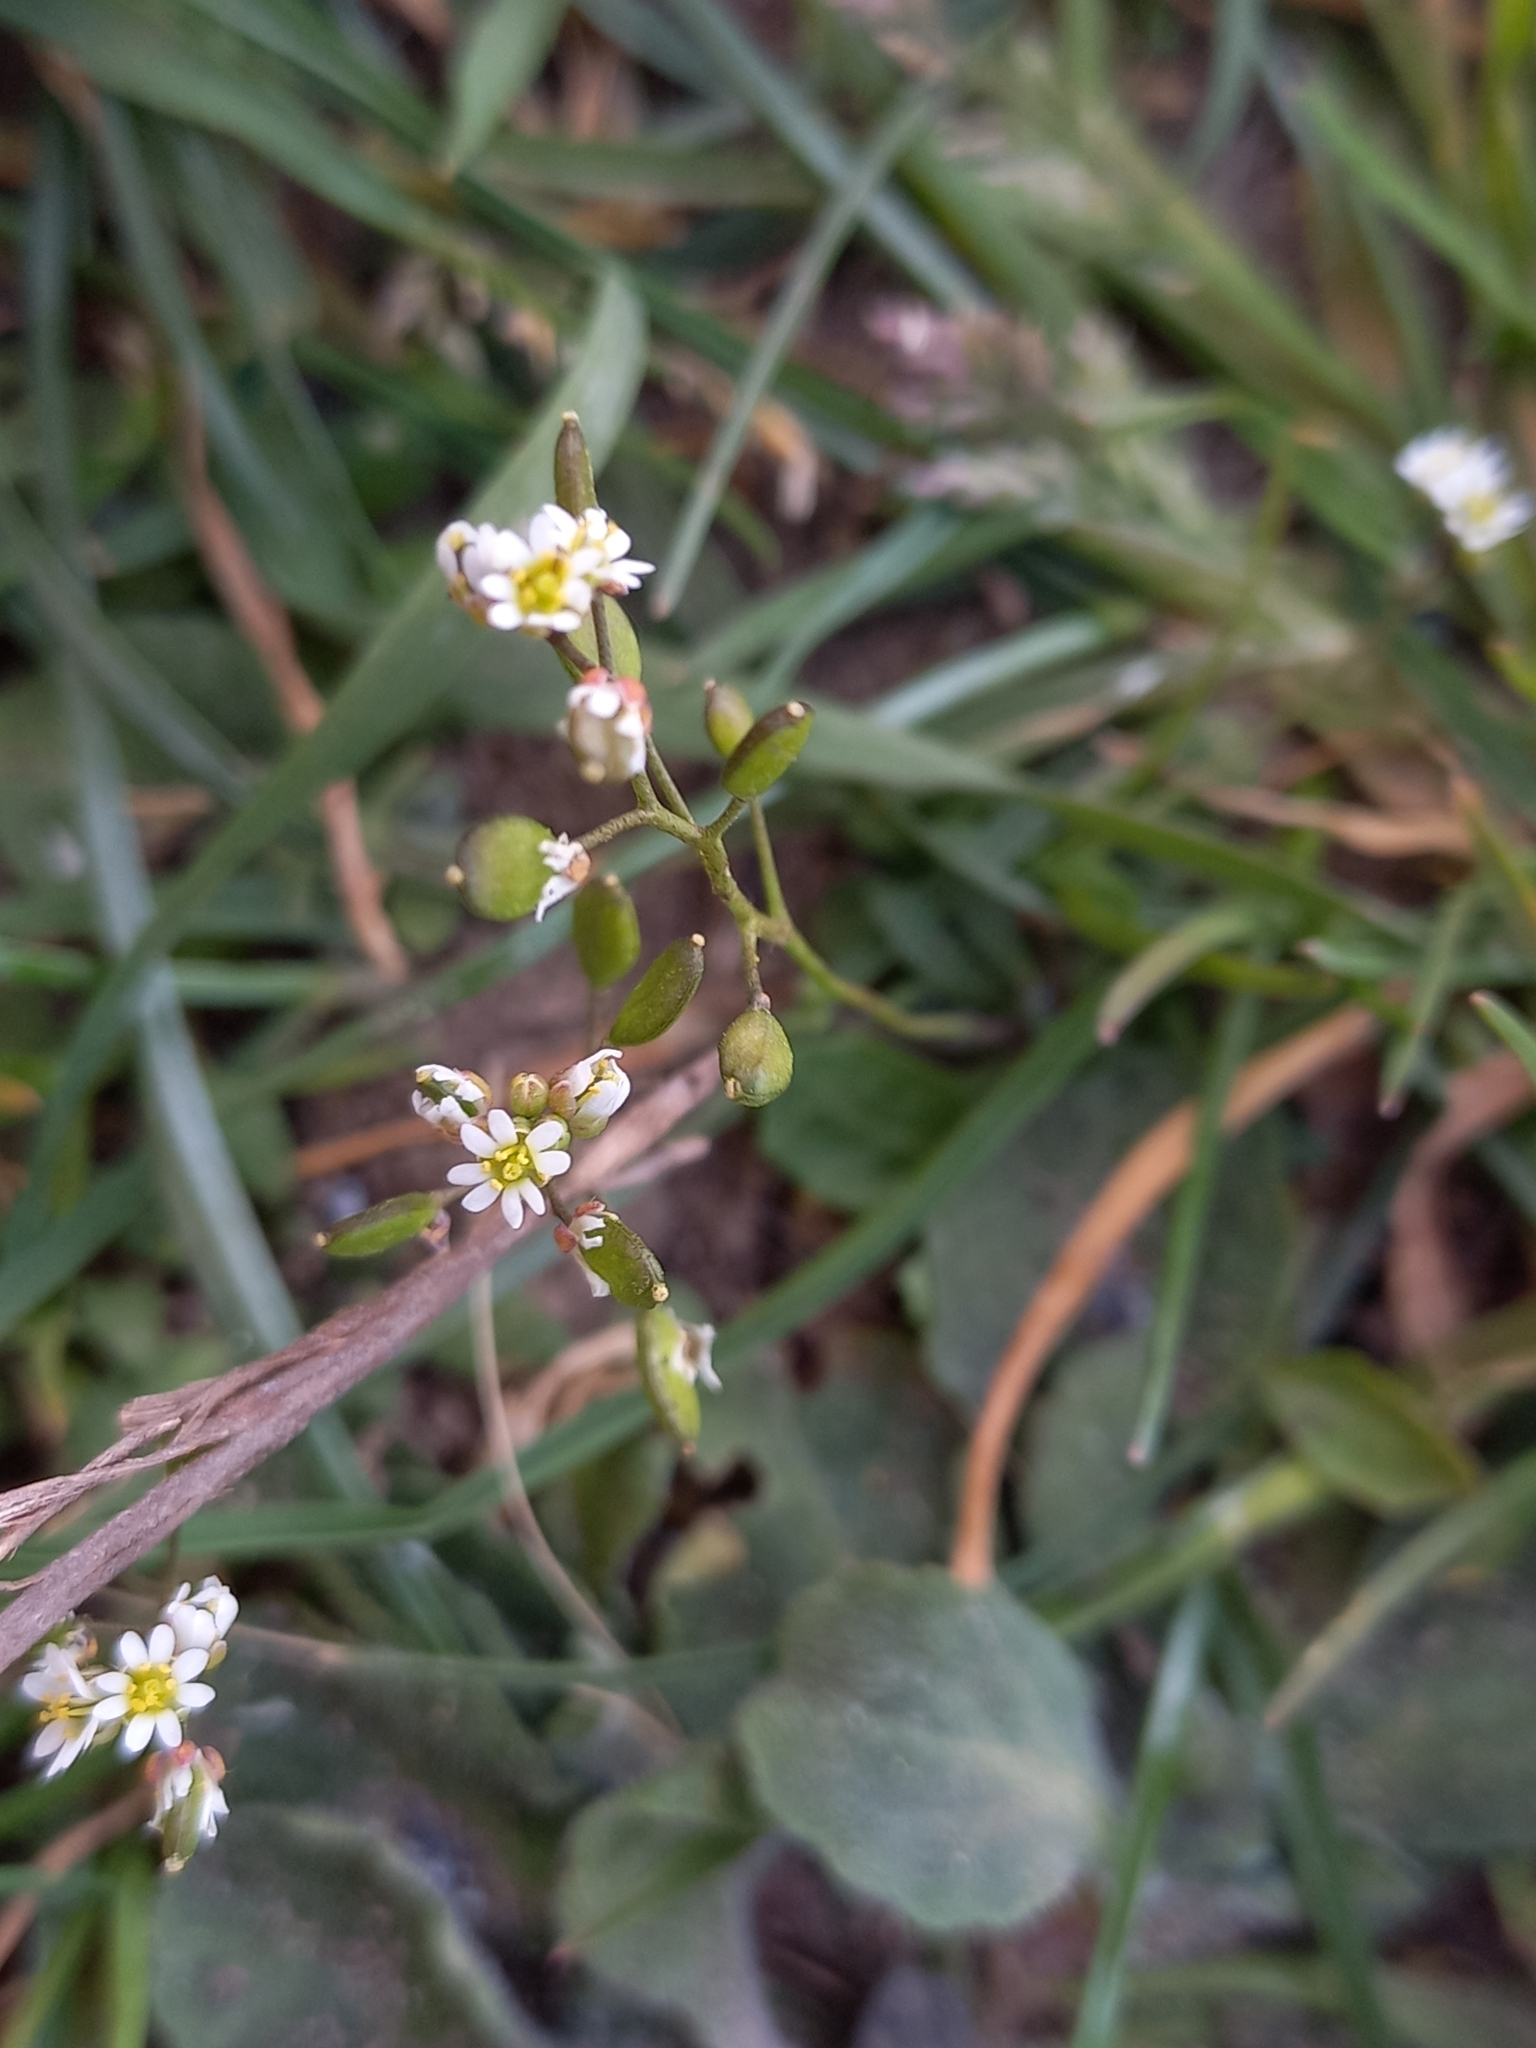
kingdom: Plantae
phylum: Tracheophyta
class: Magnoliopsida
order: Brassicales
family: Brassicaceae
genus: Draba
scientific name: Draba verna
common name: Spring draba
